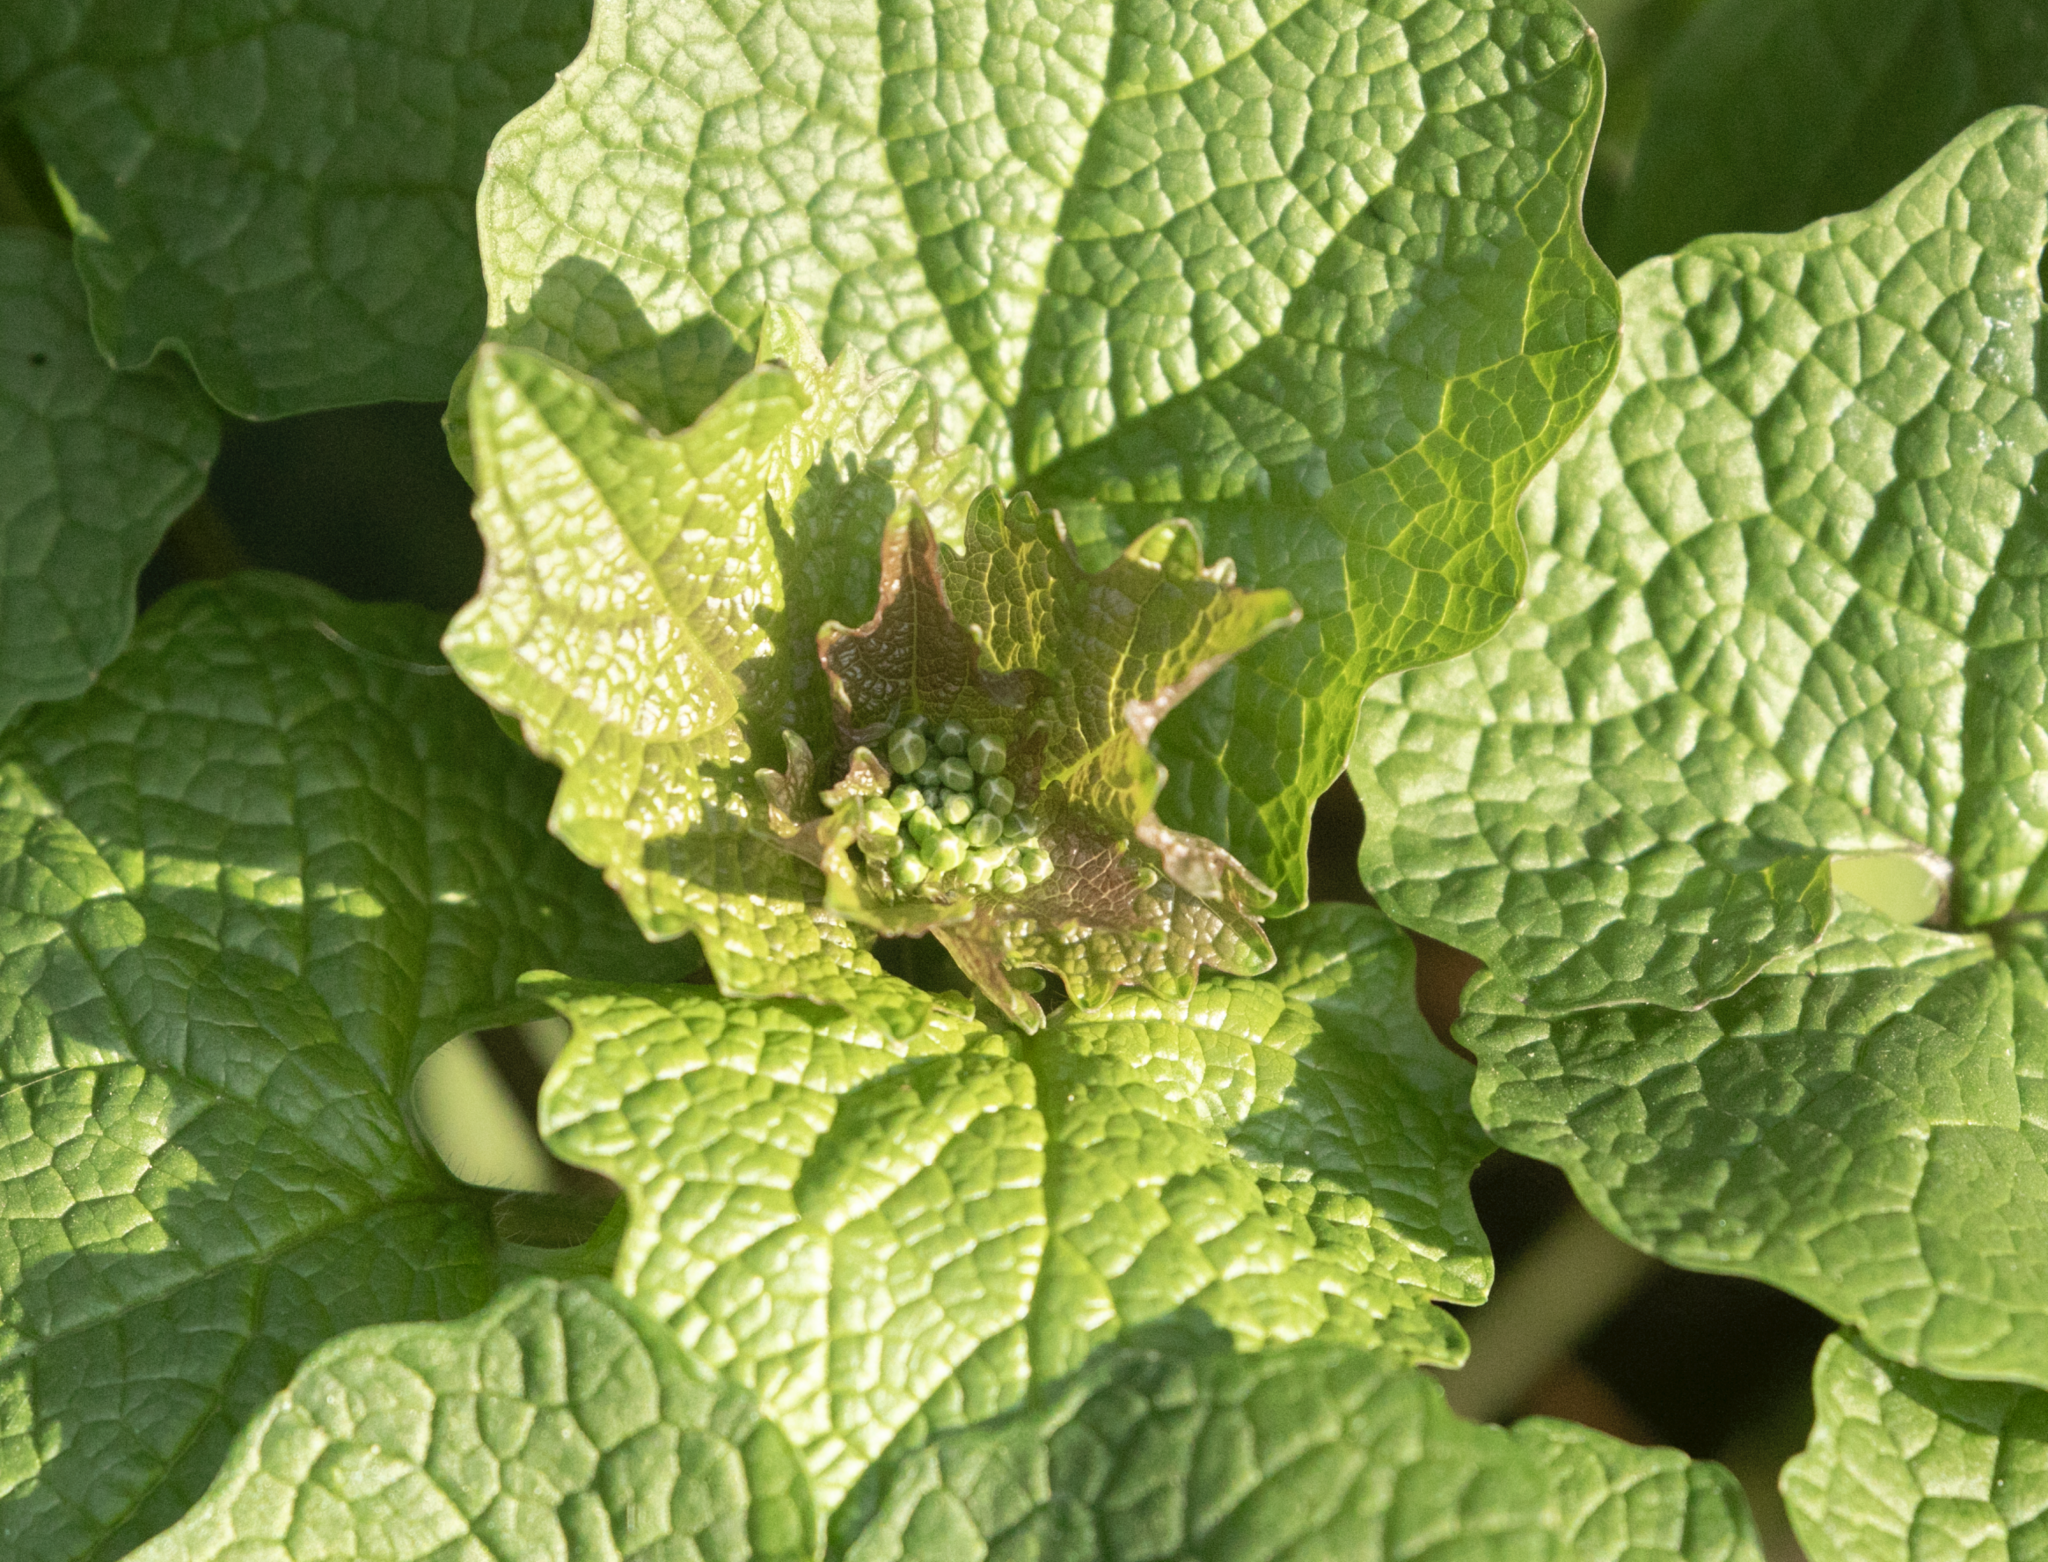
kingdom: Plantae
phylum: Tracheophyta
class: Magnoliopsida
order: Brassicales
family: Brassicaceae
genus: Alliaria
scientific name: Alliaria petiolata
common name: Garlic mustard
